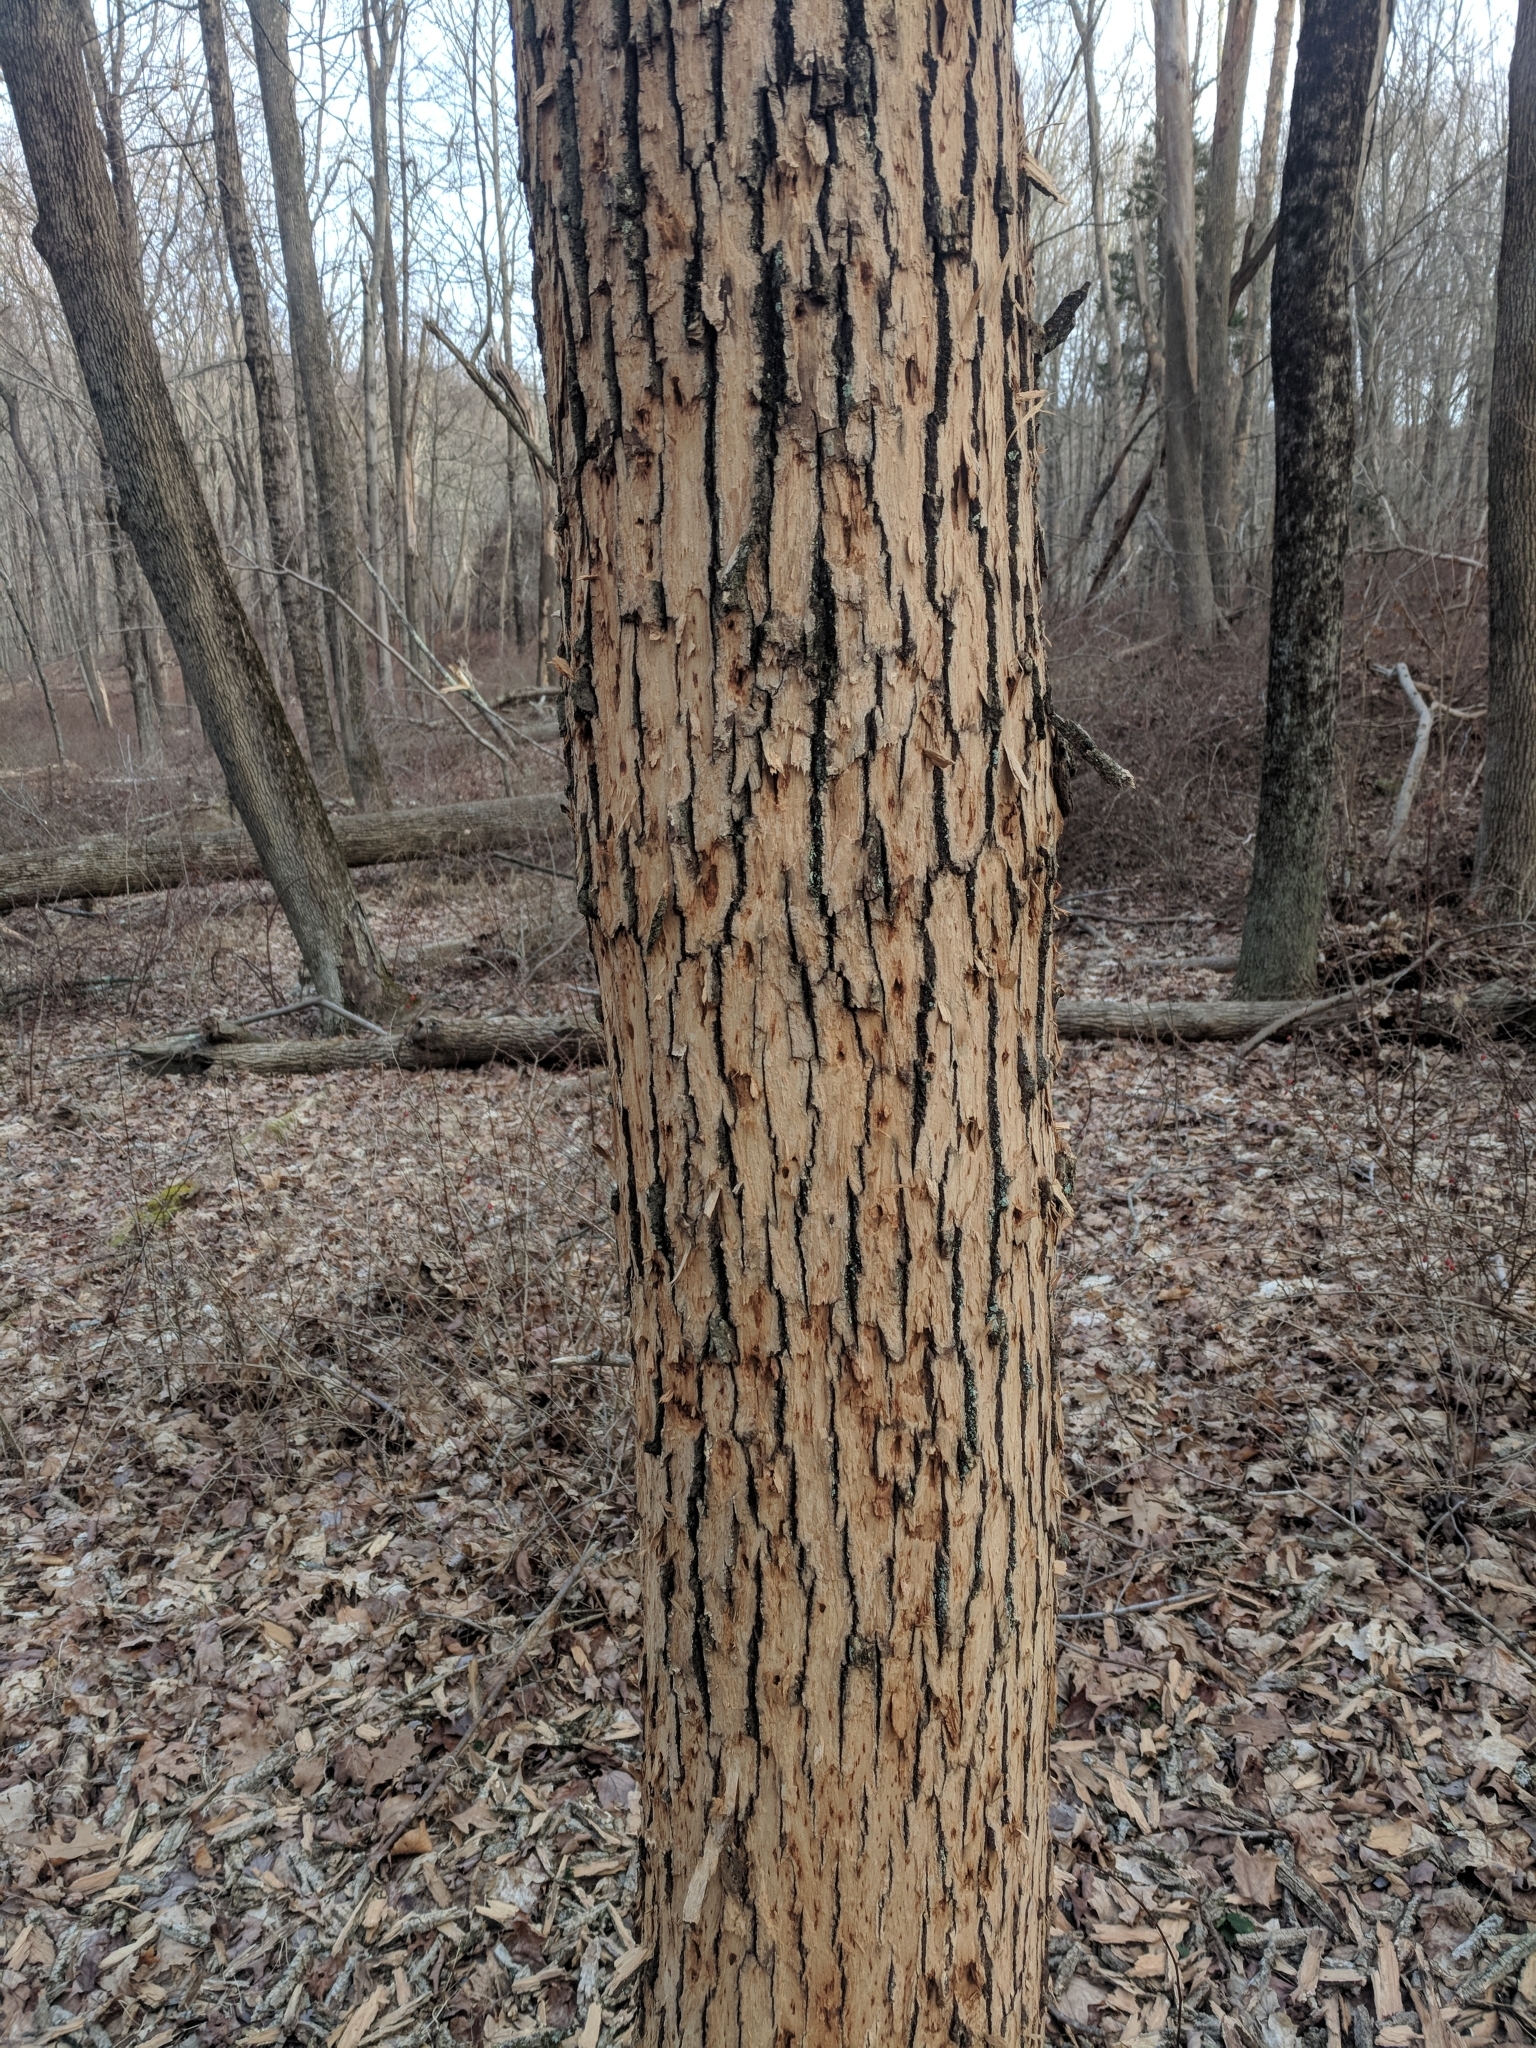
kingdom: Plantae
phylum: Tracheophyta
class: Magnoliopsida
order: Lamiales
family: Oleaceae
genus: Fraxinus
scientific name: Fraxinus americana
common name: White ash
